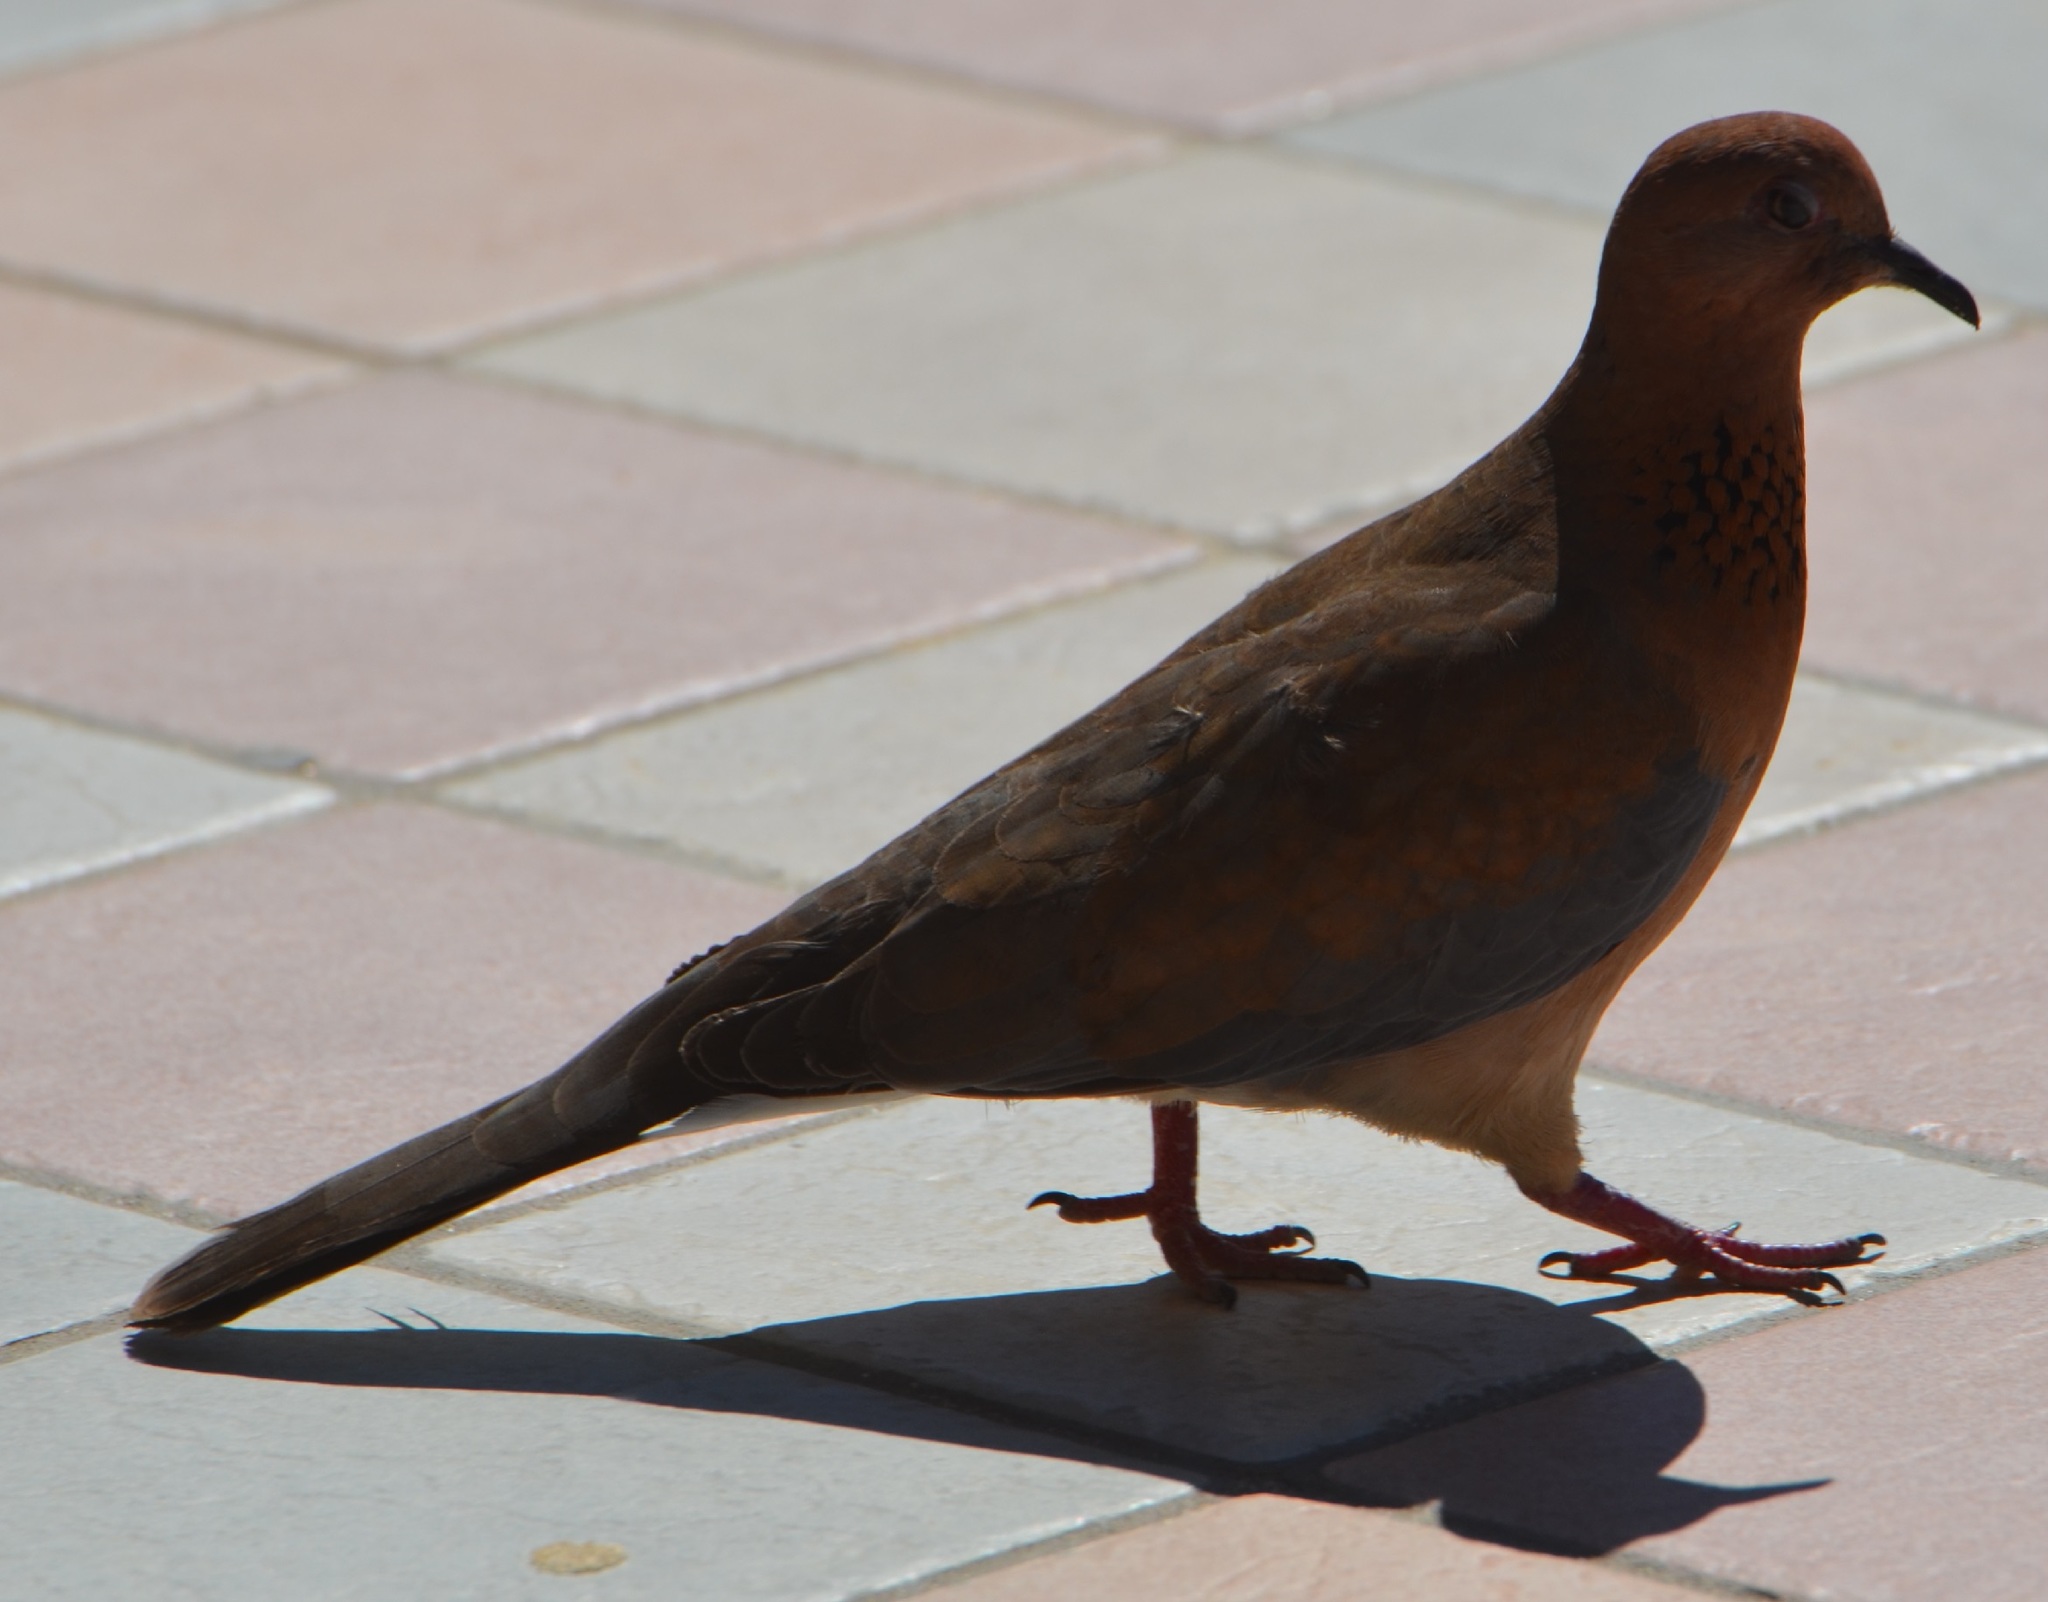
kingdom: Animalia
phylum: Chordata
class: Aves
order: Columbiformes
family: Columbidae
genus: Spilopelia
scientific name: Spilopelia senegalensis
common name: Laughing dove
